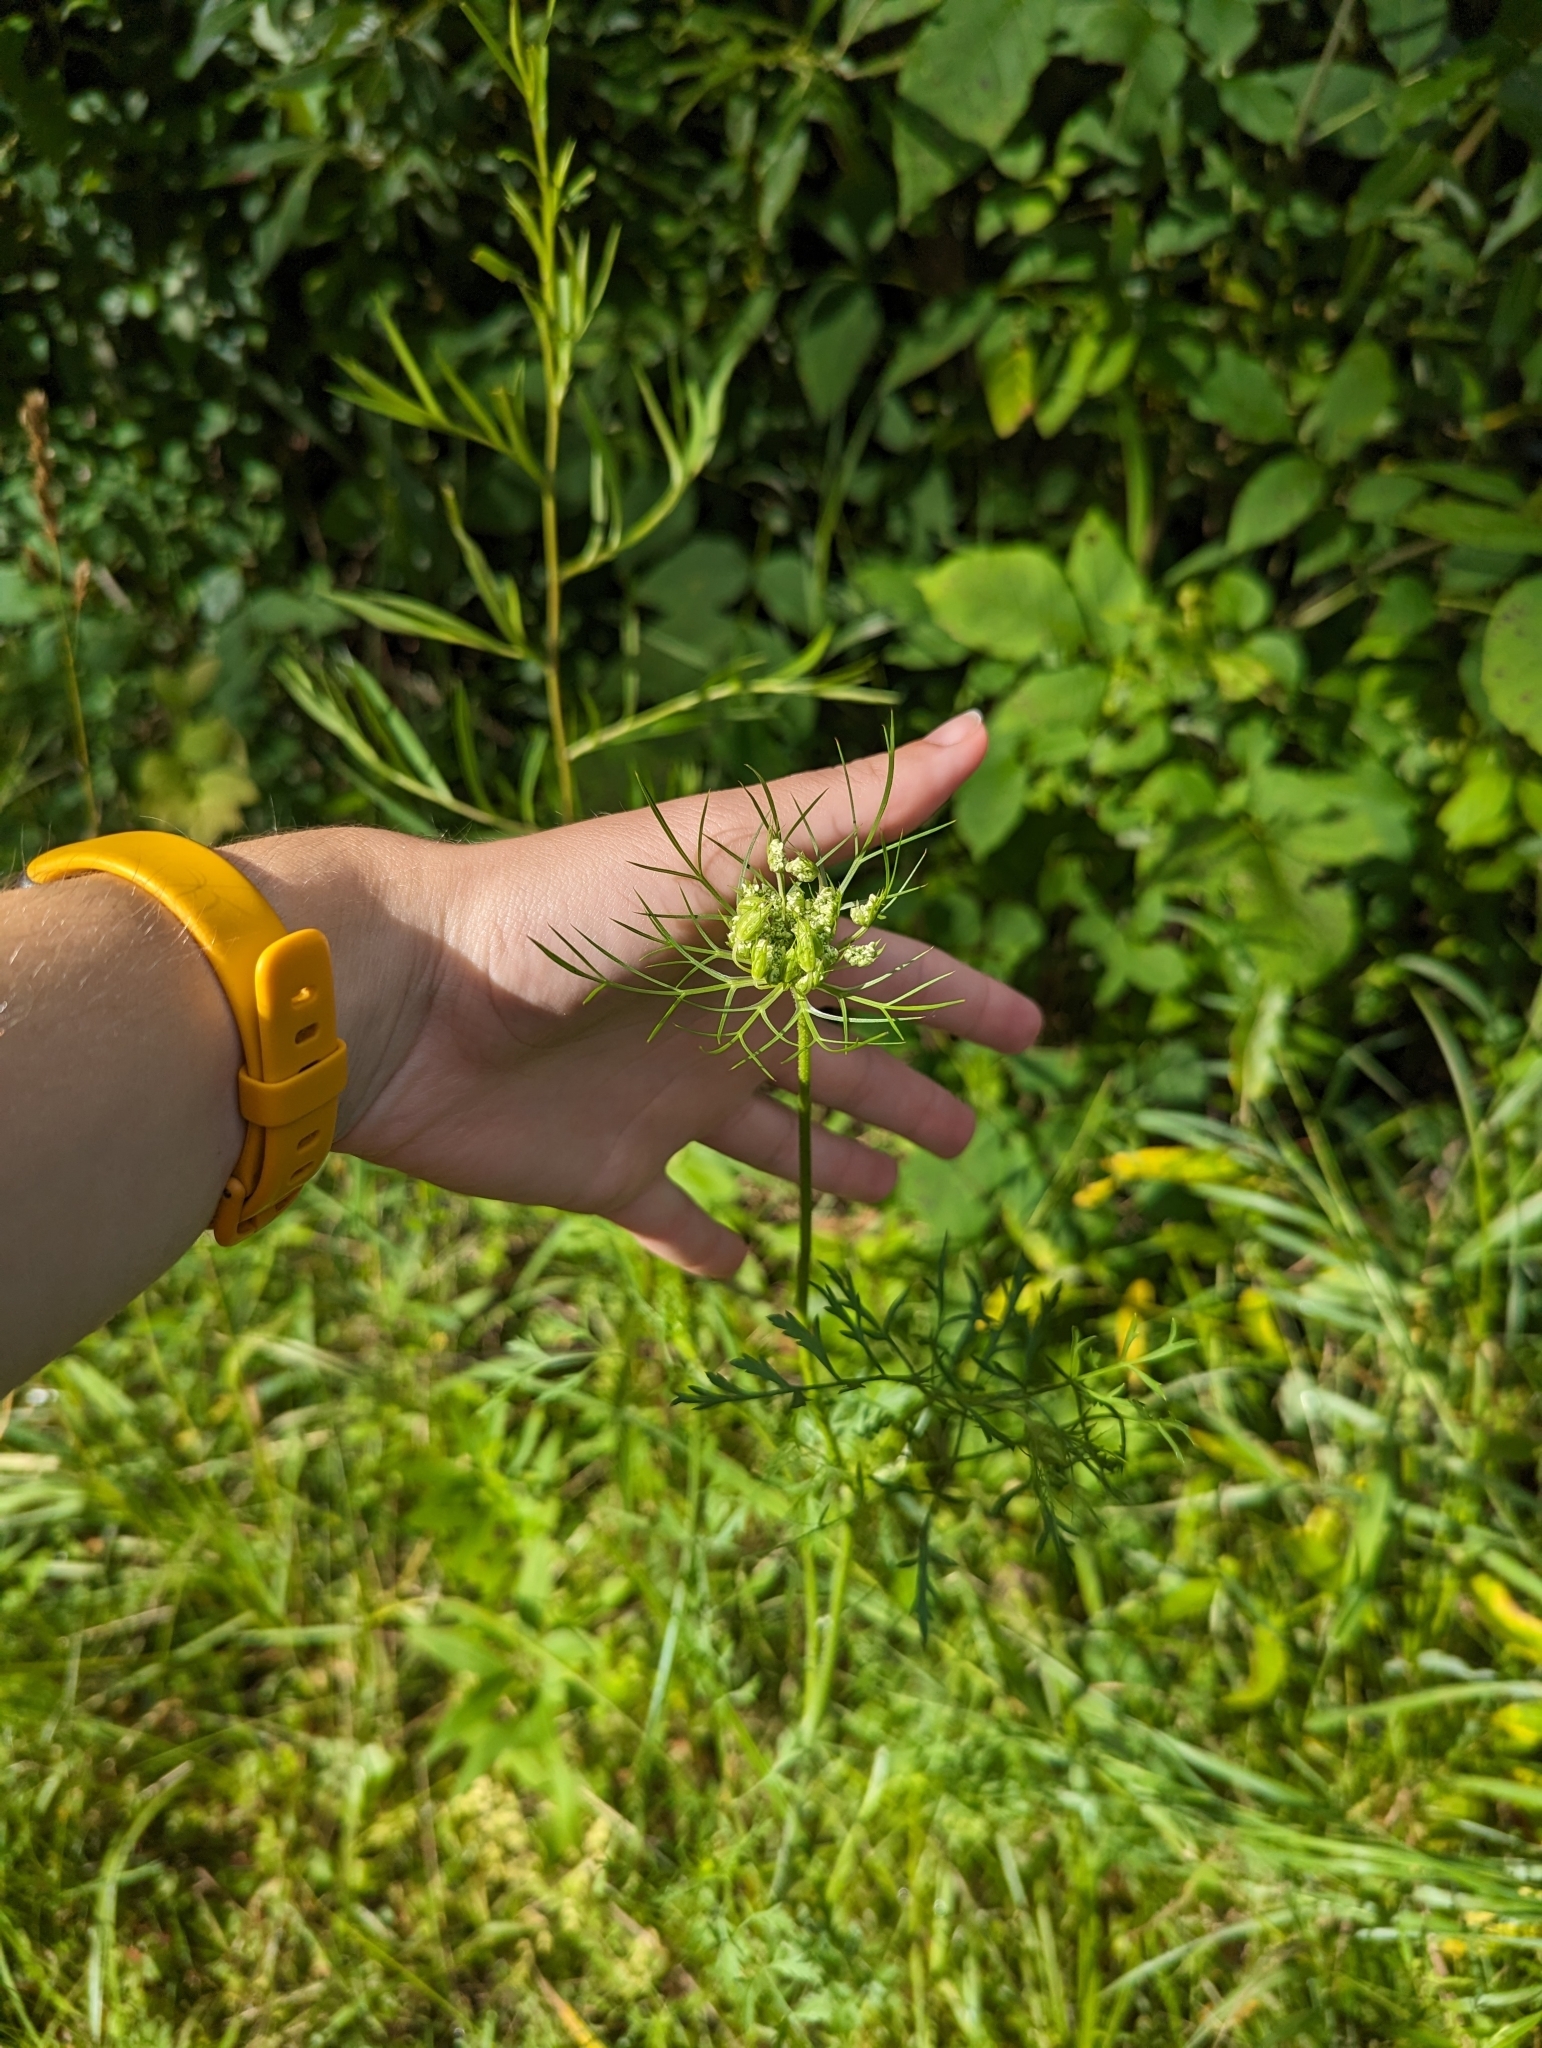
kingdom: Plantae
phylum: Tracheophyta
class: Magnoliopsida
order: Apiales
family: Apiaceae
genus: Daucus
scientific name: Daucus carota
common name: Wild carrot
